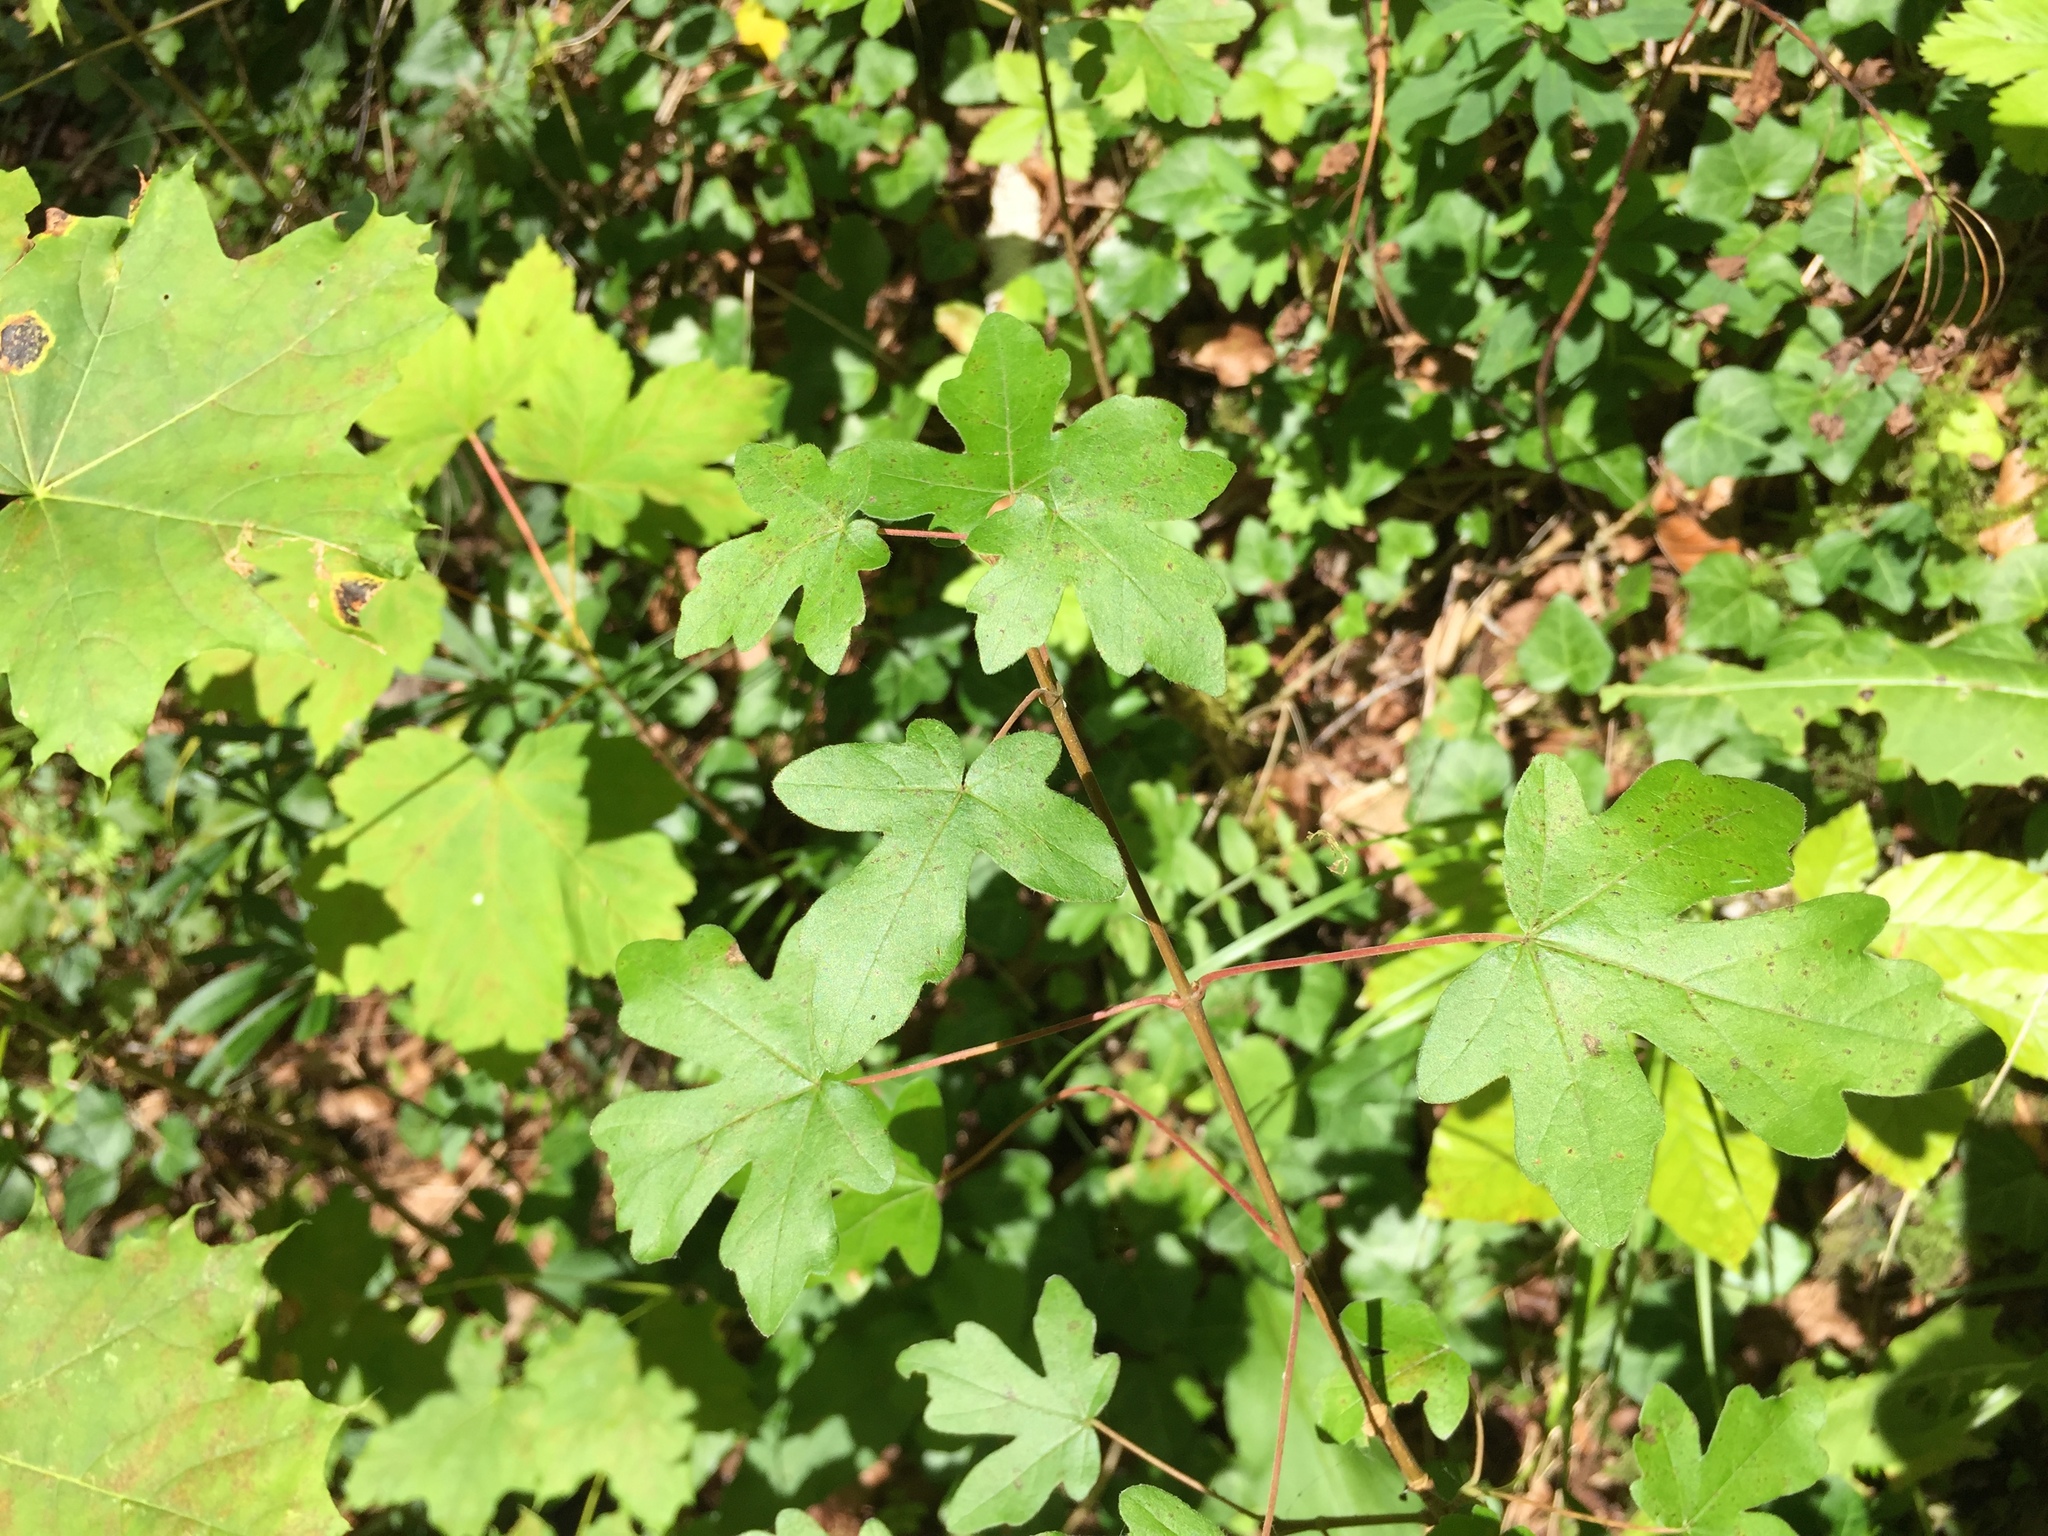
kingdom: Plantae
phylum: Tracheophyta
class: Magnoliopsida
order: Sapindales
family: Sapindaceae
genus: Acer
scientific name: Acer campestre
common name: Field maple
